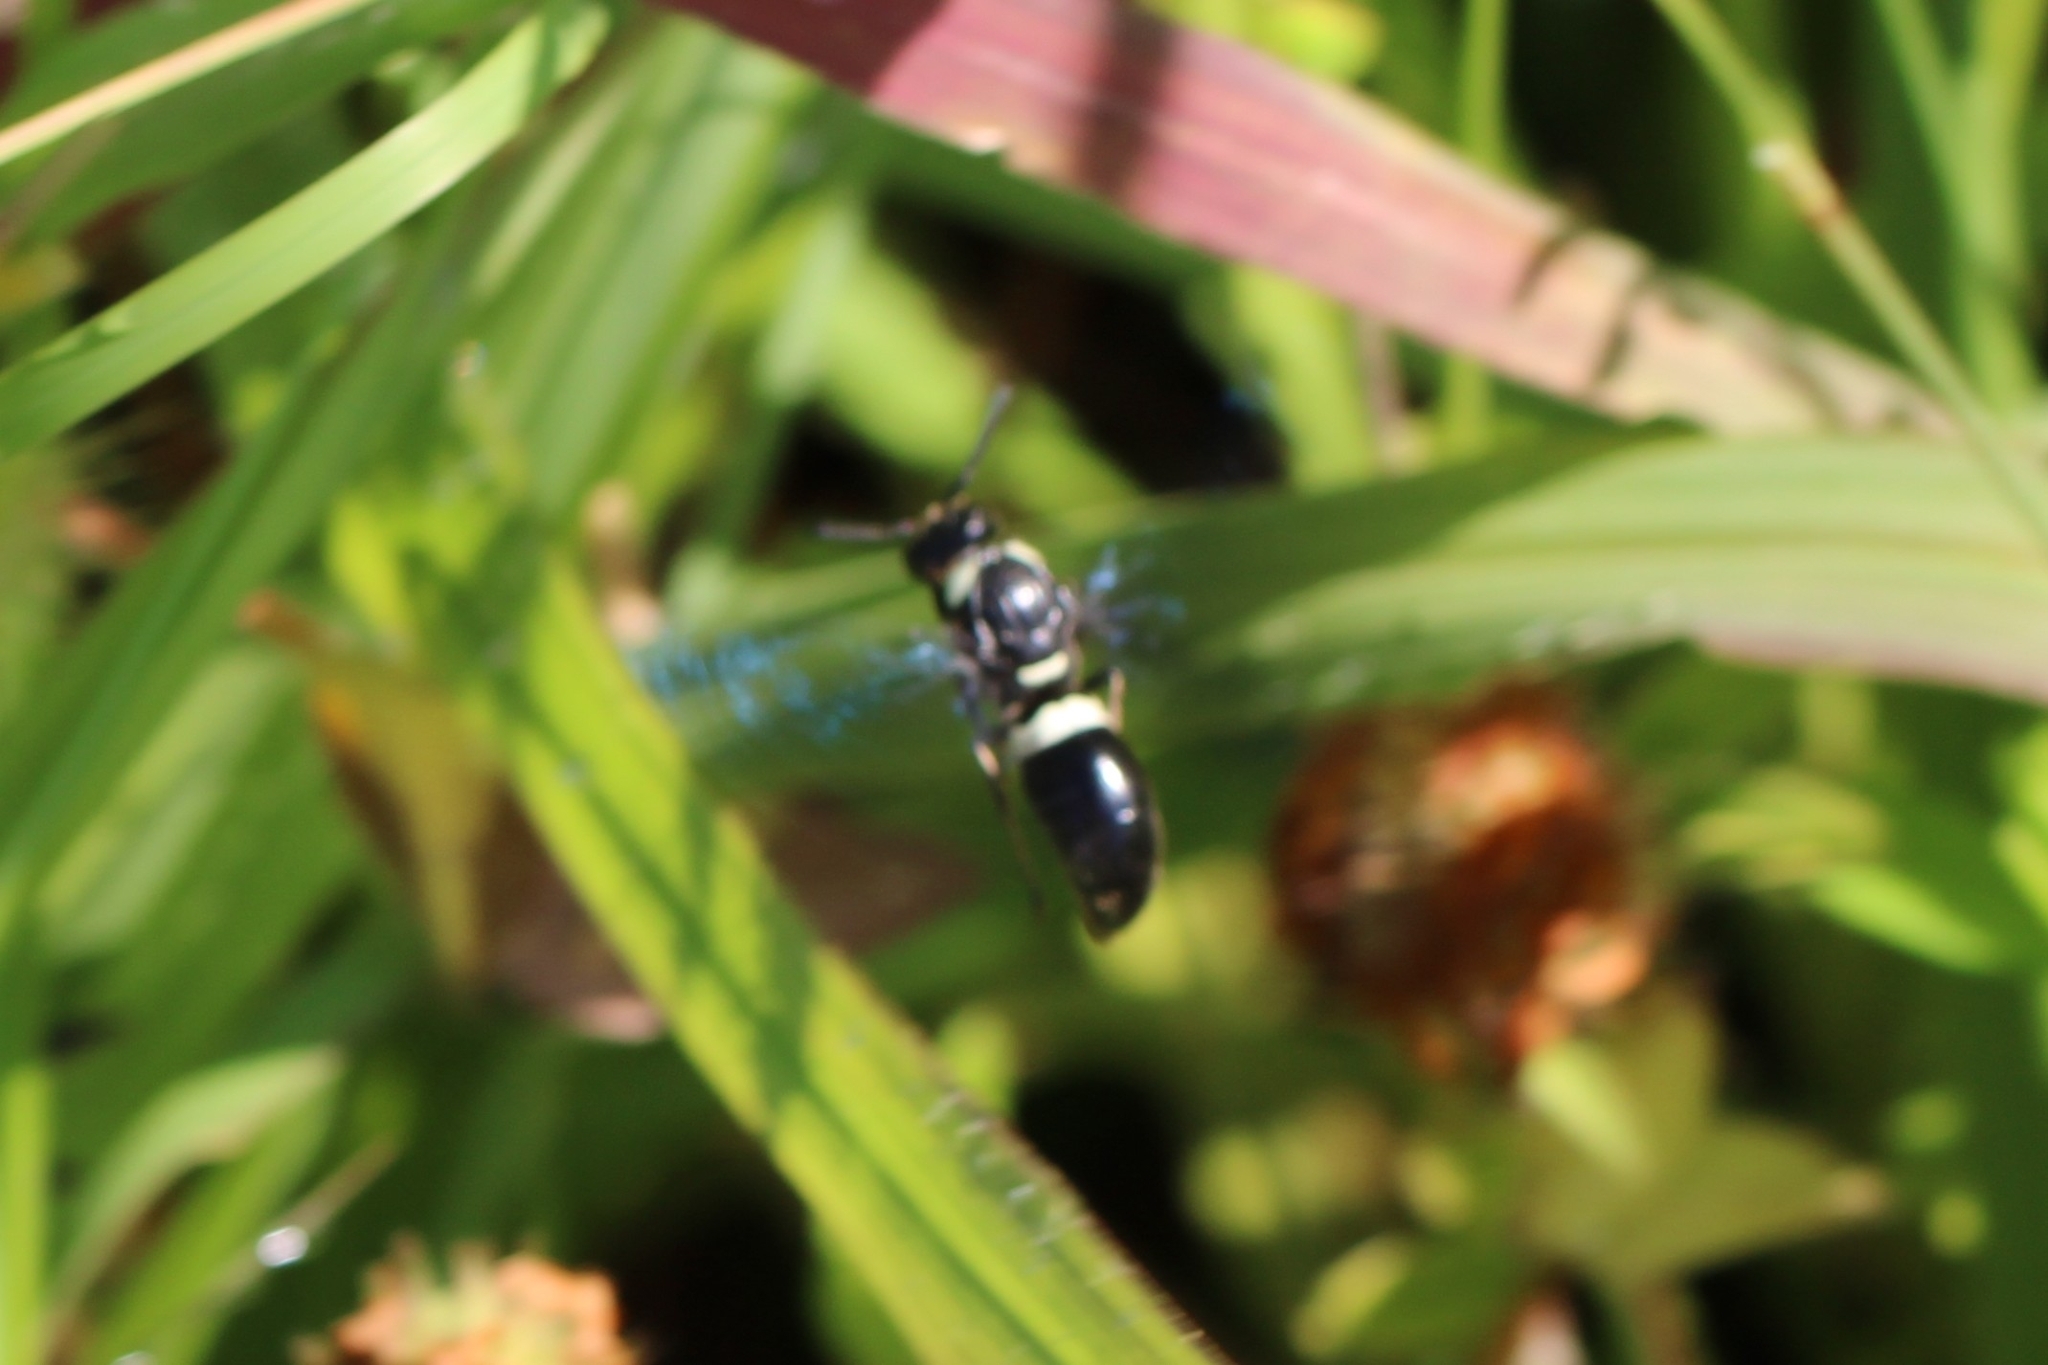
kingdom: Animalia
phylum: Arthropoda
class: Insecta
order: Hymenoptera
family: Eumenidae
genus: Monobia
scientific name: Monobia quadridens
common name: Four-toothed mason wasp
